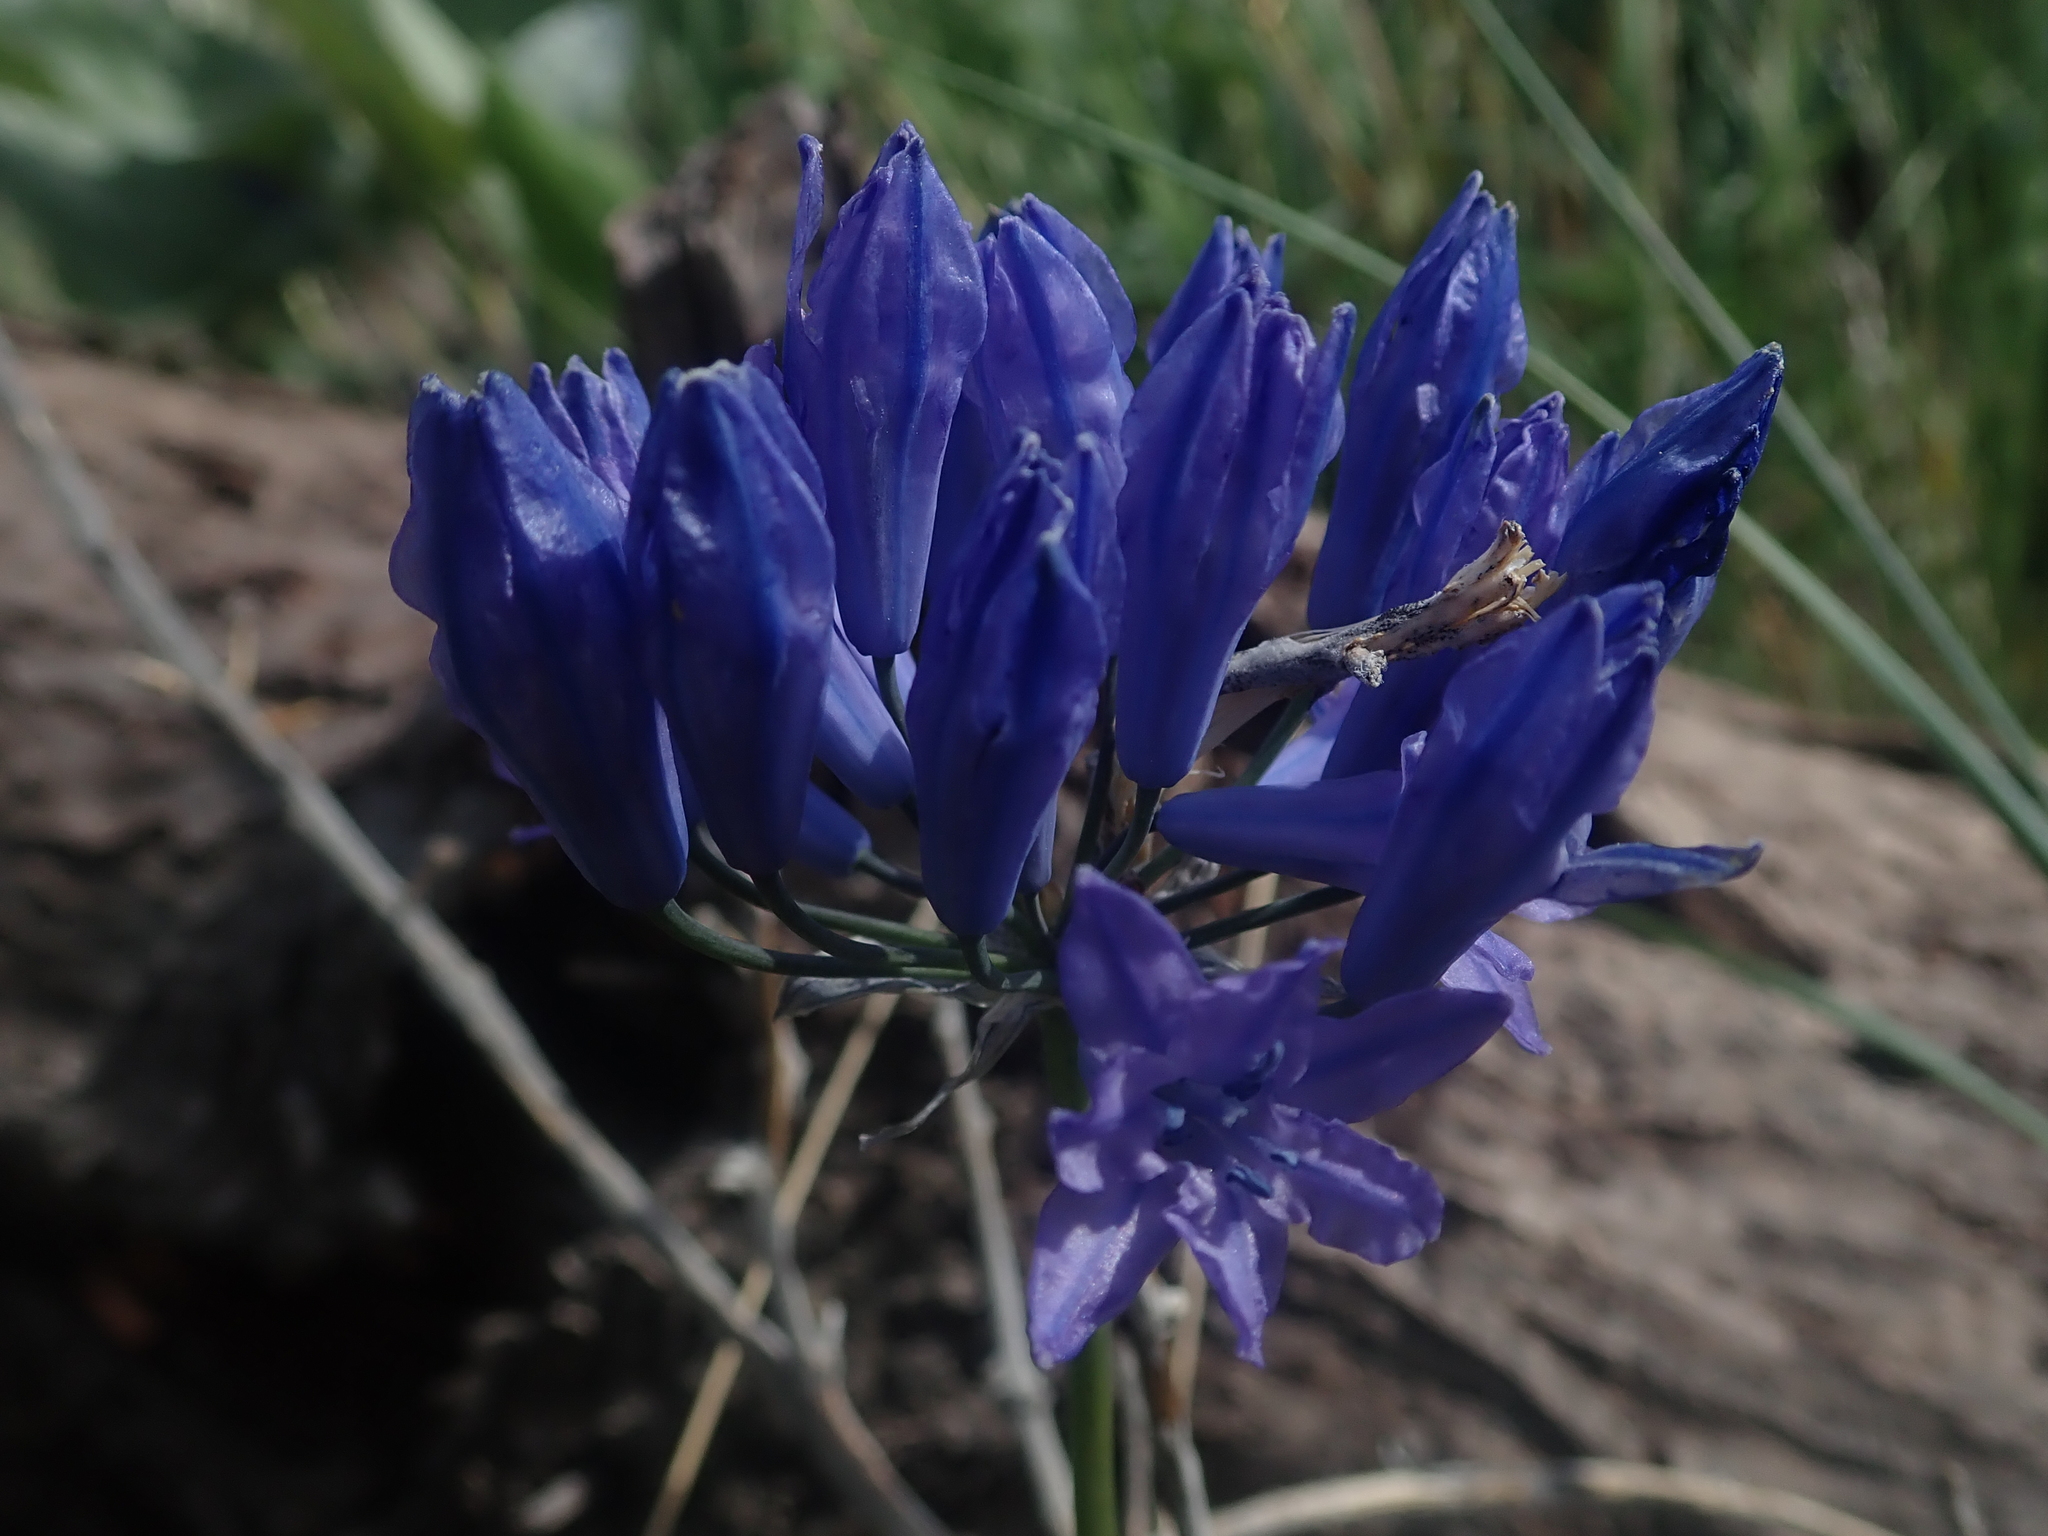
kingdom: Plantae
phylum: Tracheophyta
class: Liliopsida
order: Asparagales
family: Asparagaceae
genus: Triteleia
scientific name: Triteleia grandiflora
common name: Wild hyacinth
